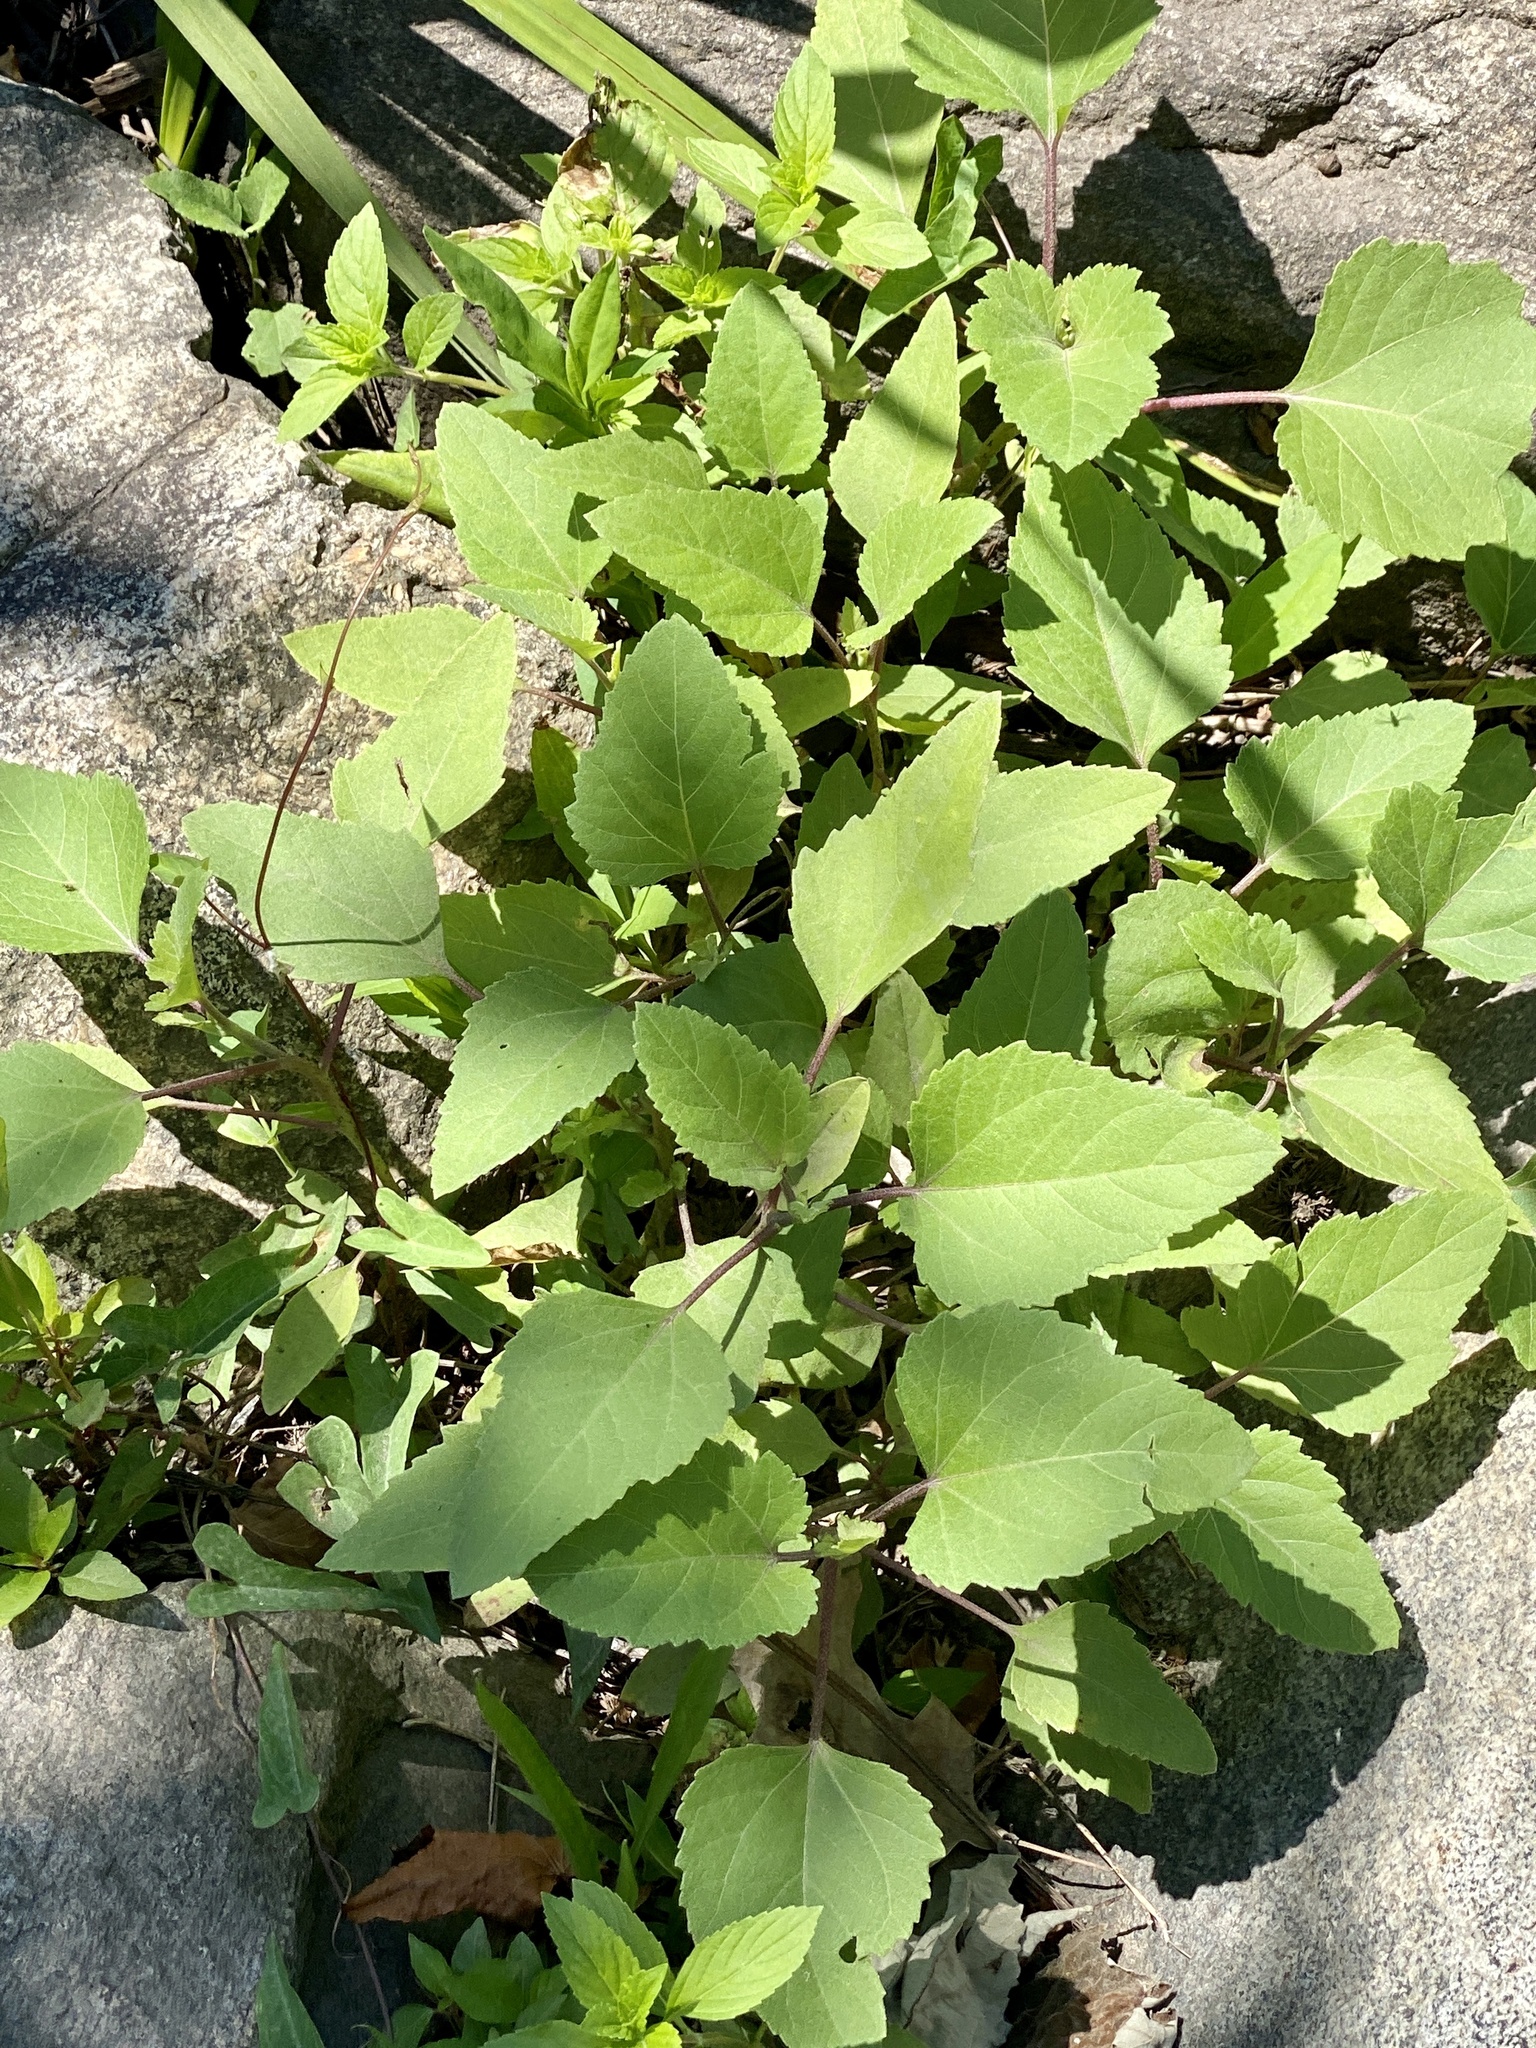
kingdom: Plantae
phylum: Tracheophyta
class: Magnoliopsida
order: Asterales
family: Asteraceae
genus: Xanthium
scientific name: Xanthium strumarium
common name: Rough cocklebur
